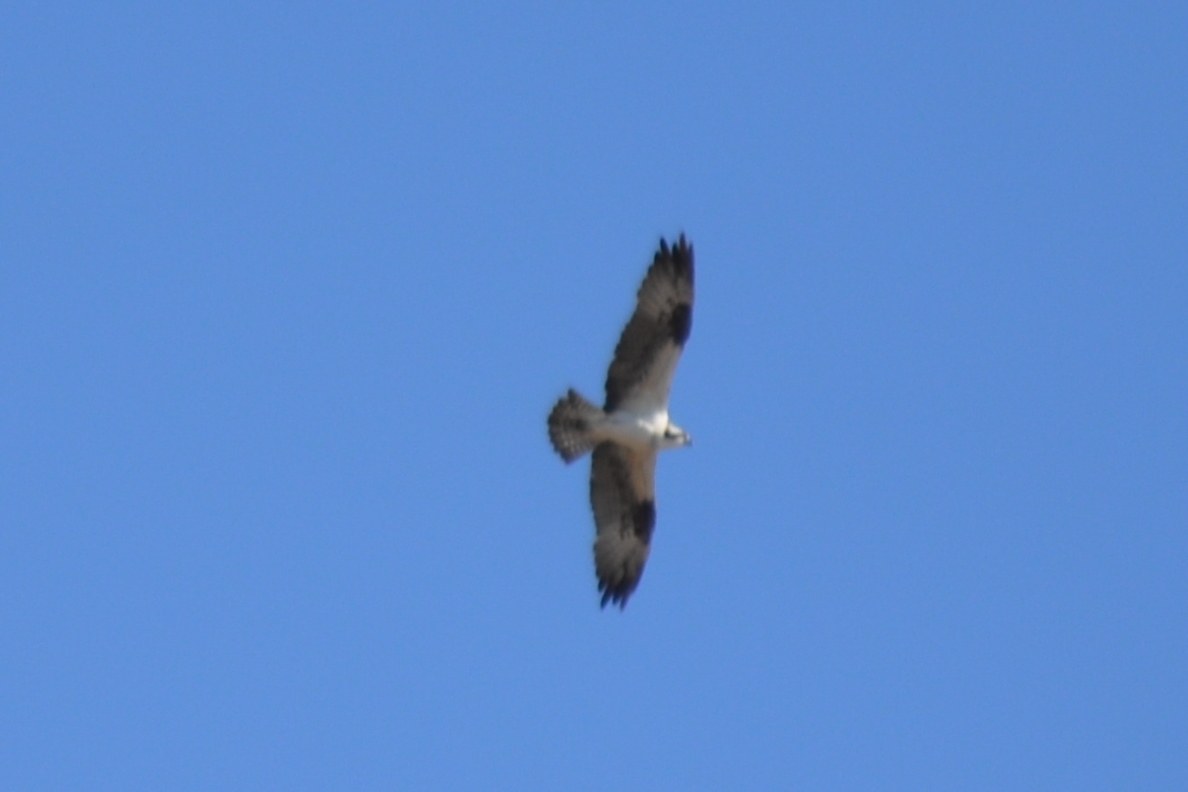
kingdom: Animalia
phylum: Chordata
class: Aves
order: Accipitriformes
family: Pandionidae
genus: Pandion
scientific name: Pandion haliaetus
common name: Osprey
